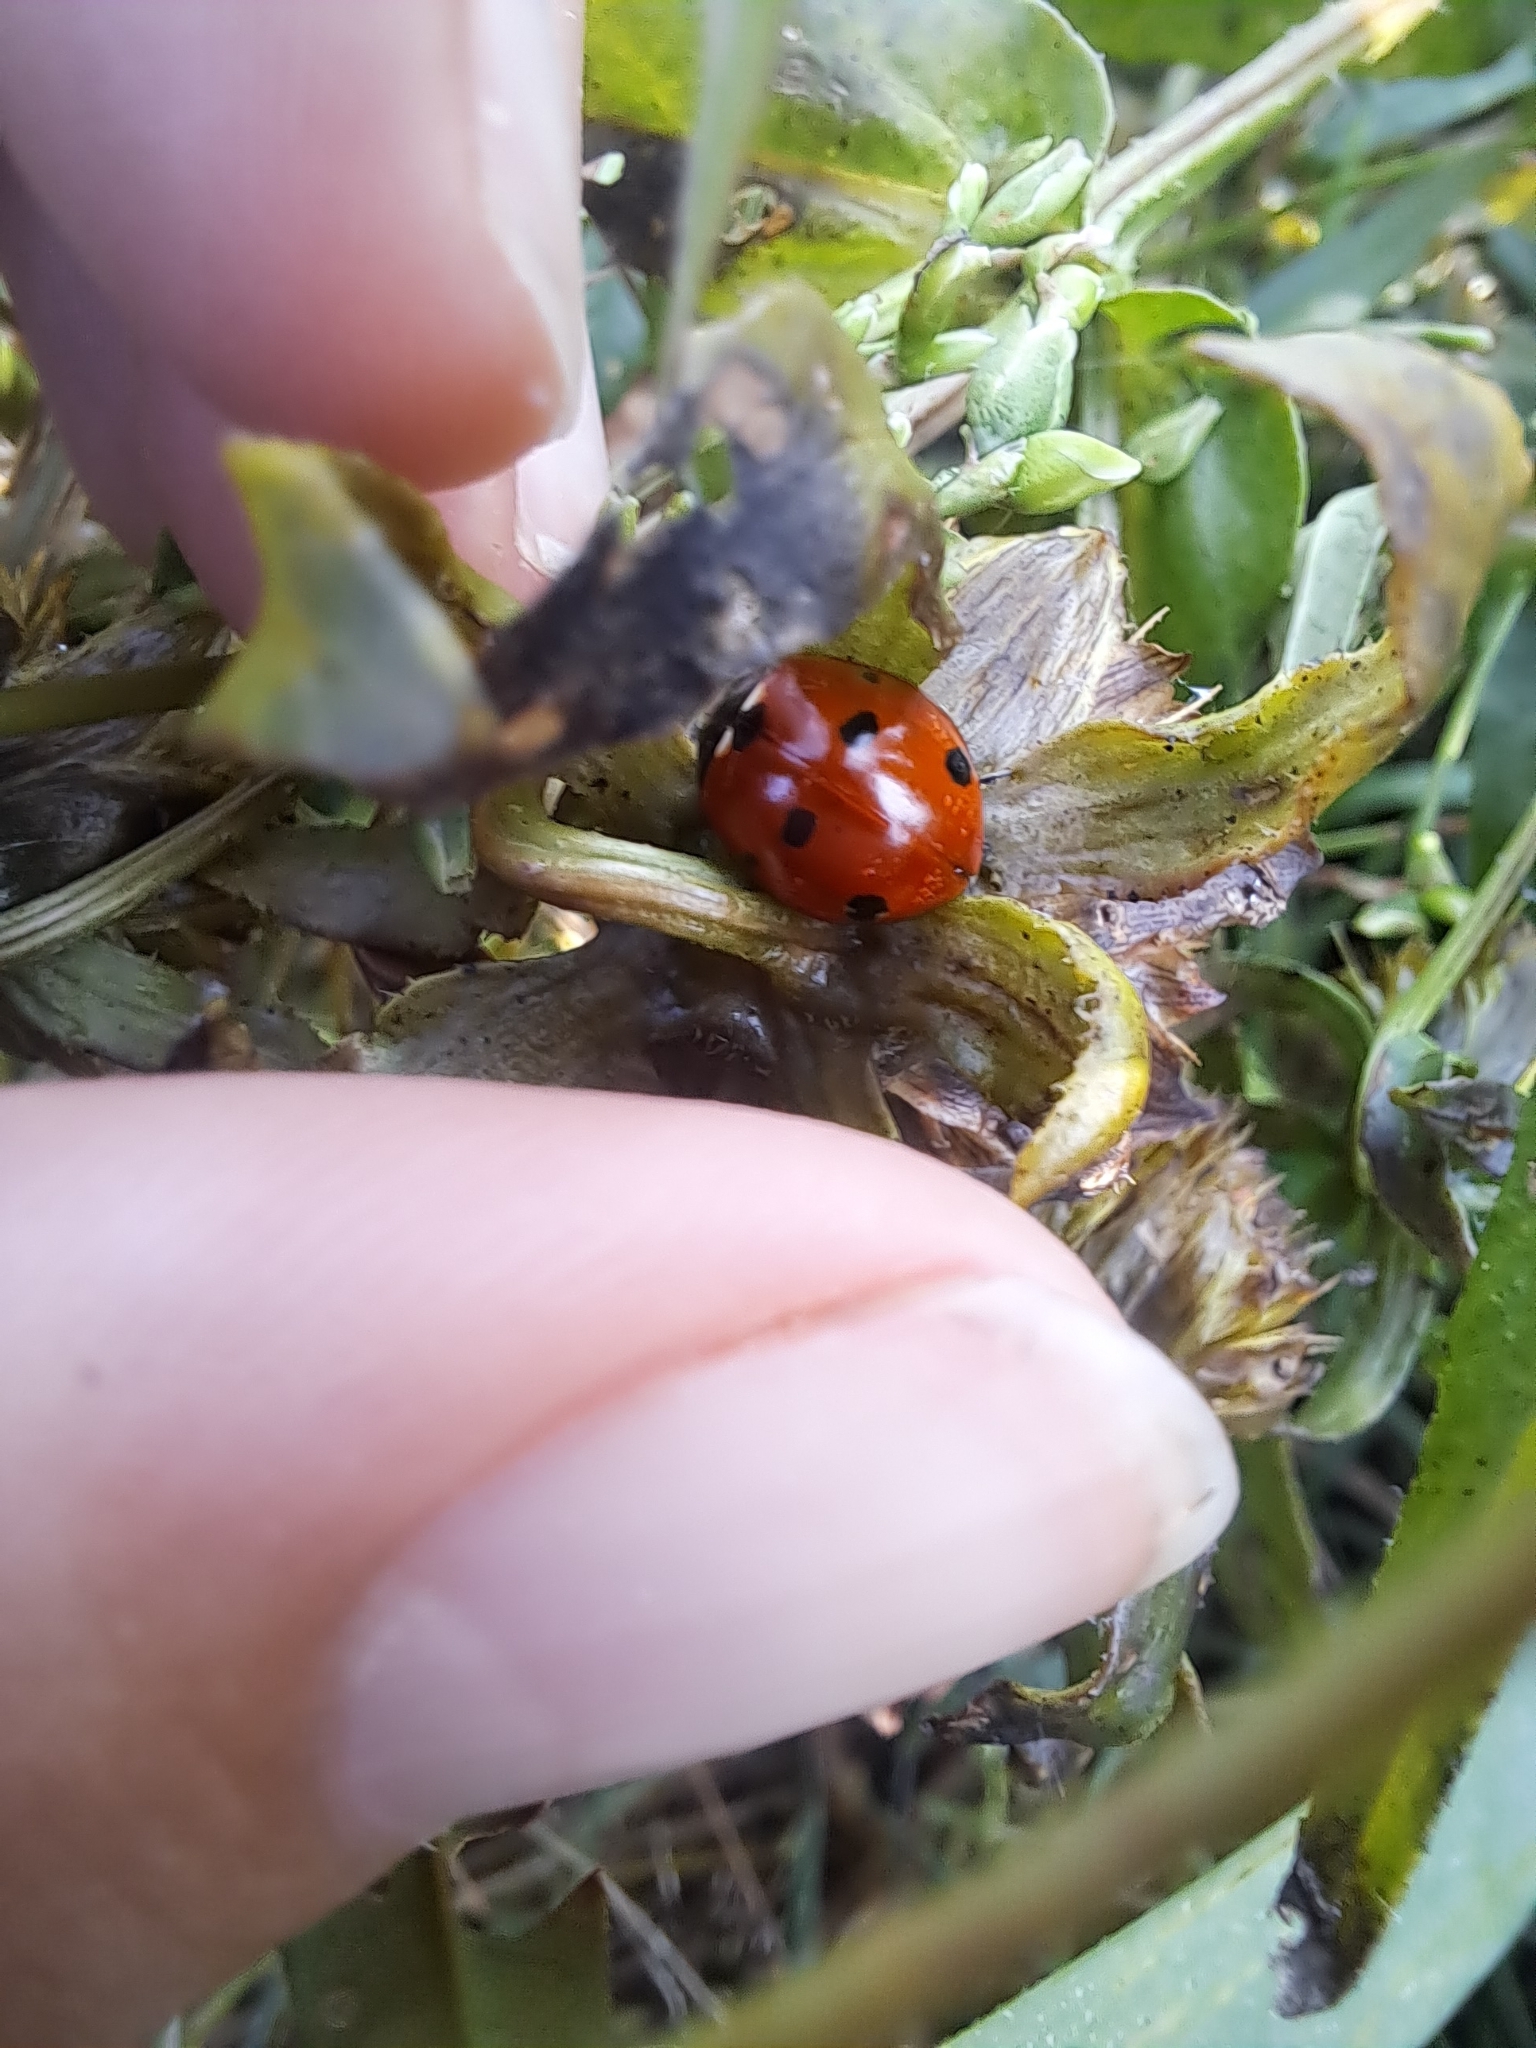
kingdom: Animalia
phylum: Arthropoda
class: Insecta
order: Coleoptera
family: Coccinellidae
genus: Coccinella
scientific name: Coccinella septempunctata
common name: Sevenspotted lady beetle
